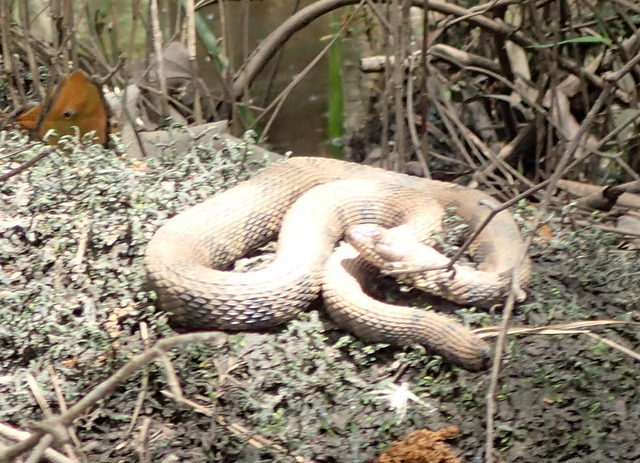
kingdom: Animalia
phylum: Chordata
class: Squamata
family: Colubridae
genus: Nerodia
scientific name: Nerodia taxispilota
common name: Brown water snake
